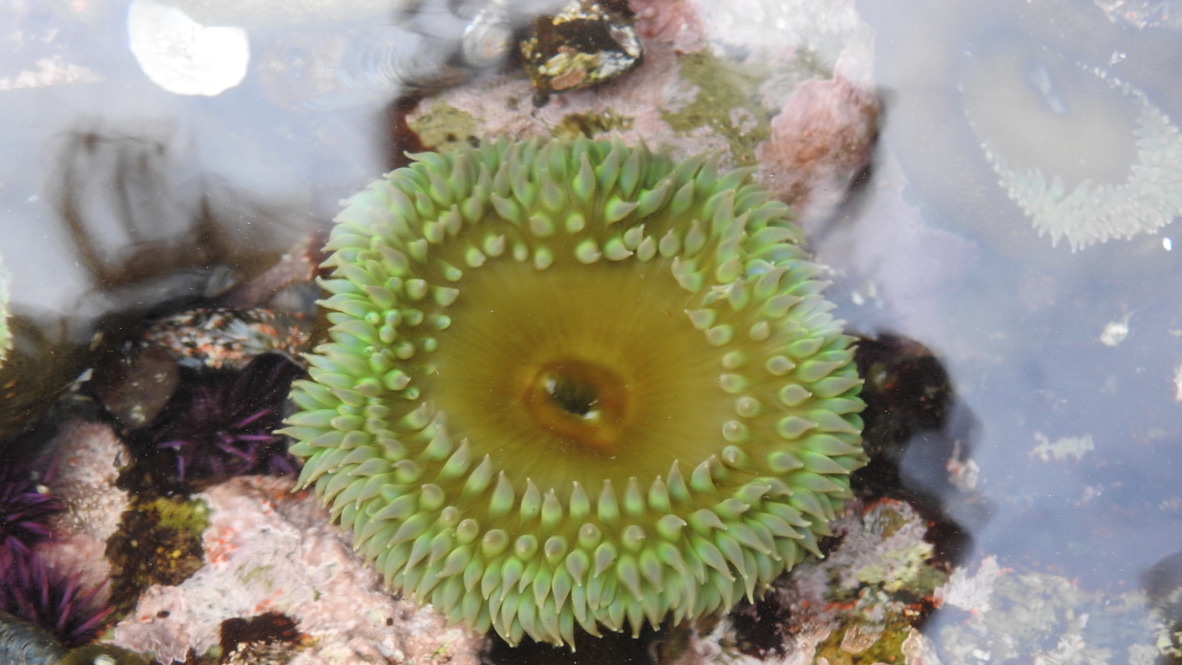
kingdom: Animalia
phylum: Cnidaria
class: Anthozoa
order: Actiniaria
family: Actiniidae
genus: Anthopleura
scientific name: Anthopleura xanthogrammica
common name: Giant green anemone
